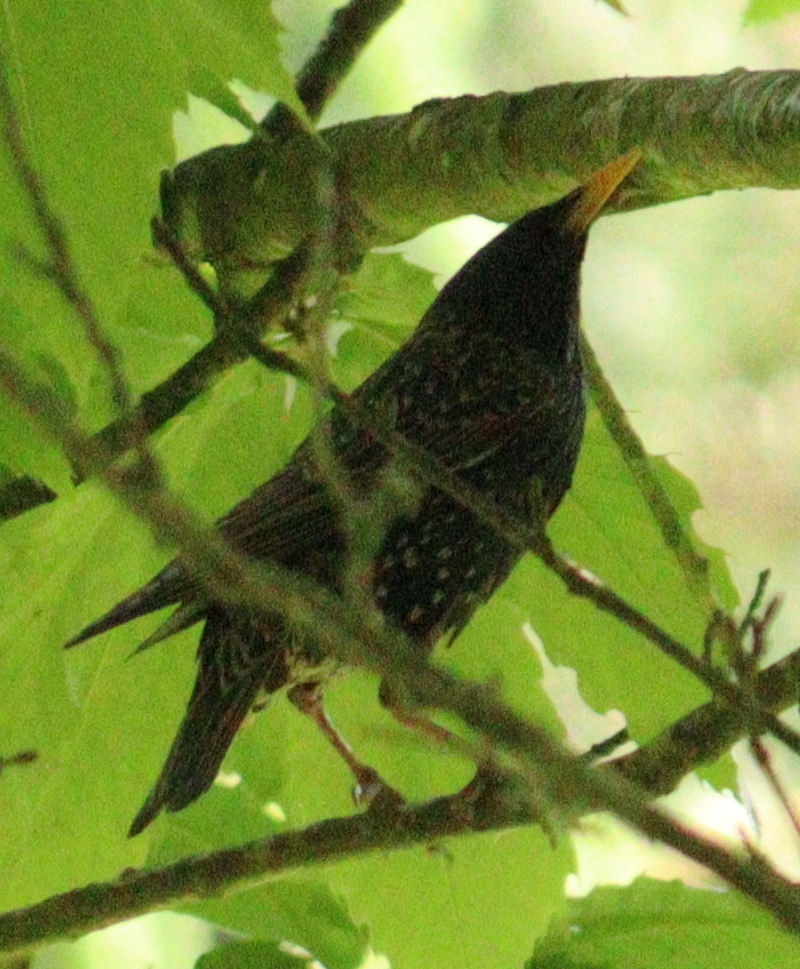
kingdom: Animalia
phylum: Chordata
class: Aves
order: Passeriformes
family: Sturnidae
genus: Sturnus
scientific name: Sturnus vulgaris
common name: Common starling
